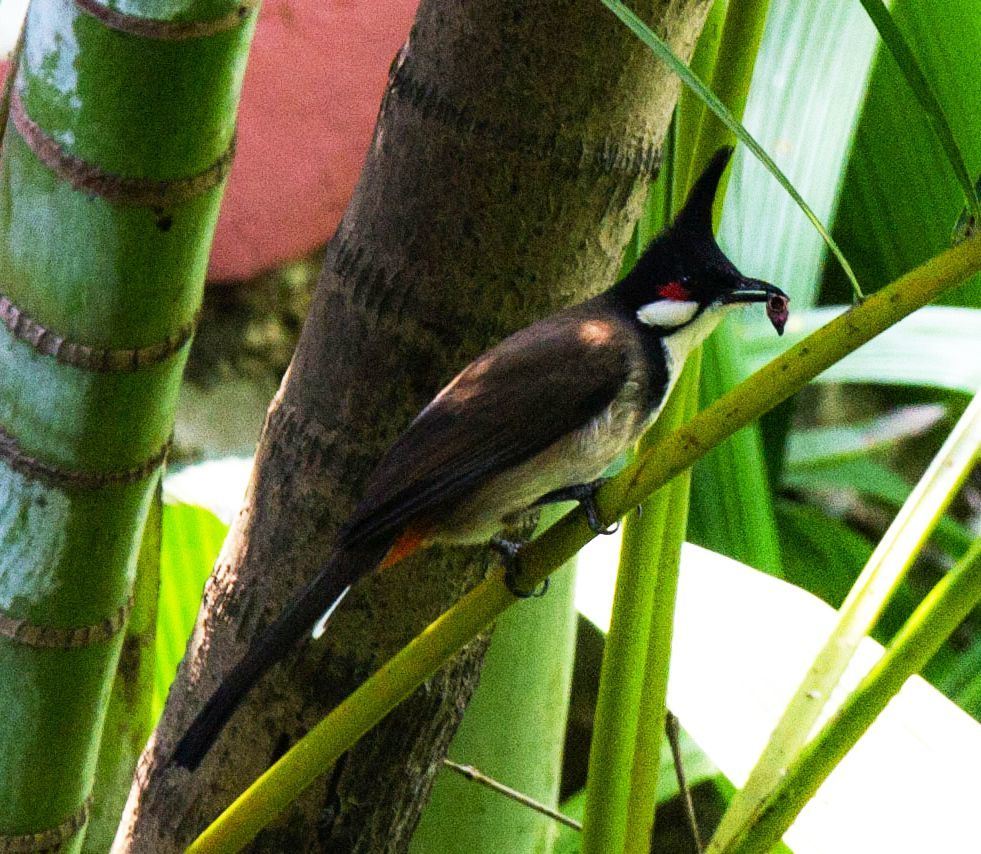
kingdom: Animalia
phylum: Chordata
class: Aves
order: Passeriformes
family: Pycnonotidae
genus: Pycnonotus
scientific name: Pycnonotus jocosus
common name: Red-whiskered bulbul
